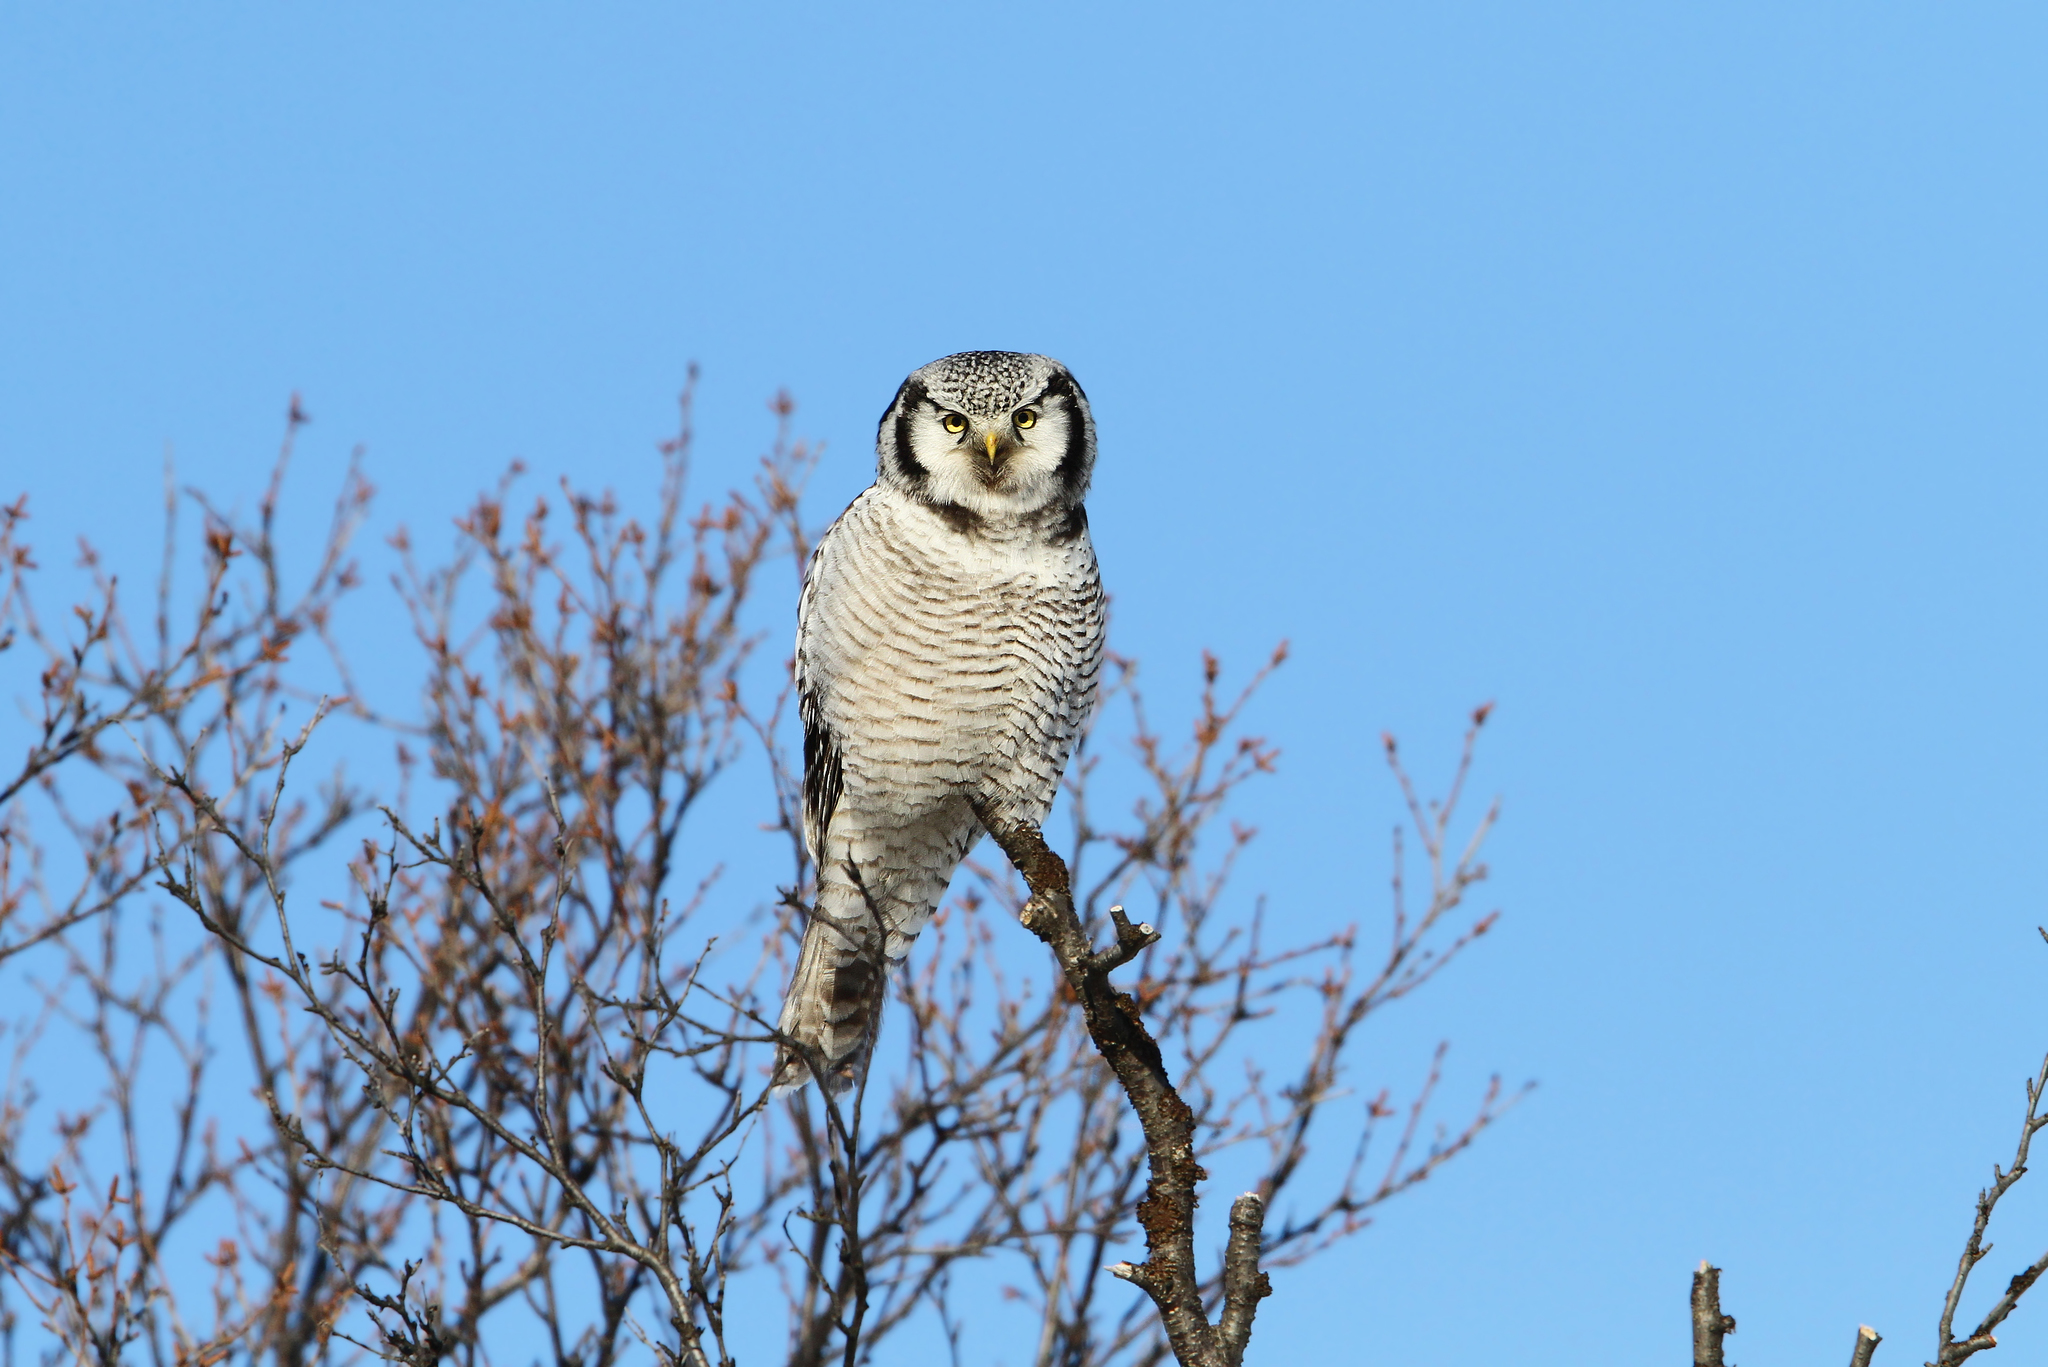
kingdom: Animalia
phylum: Chordata
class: Aves
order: Strigiformes
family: Strigidae
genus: Surnia
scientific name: Surnia ulula
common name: Northern hawk-owl
